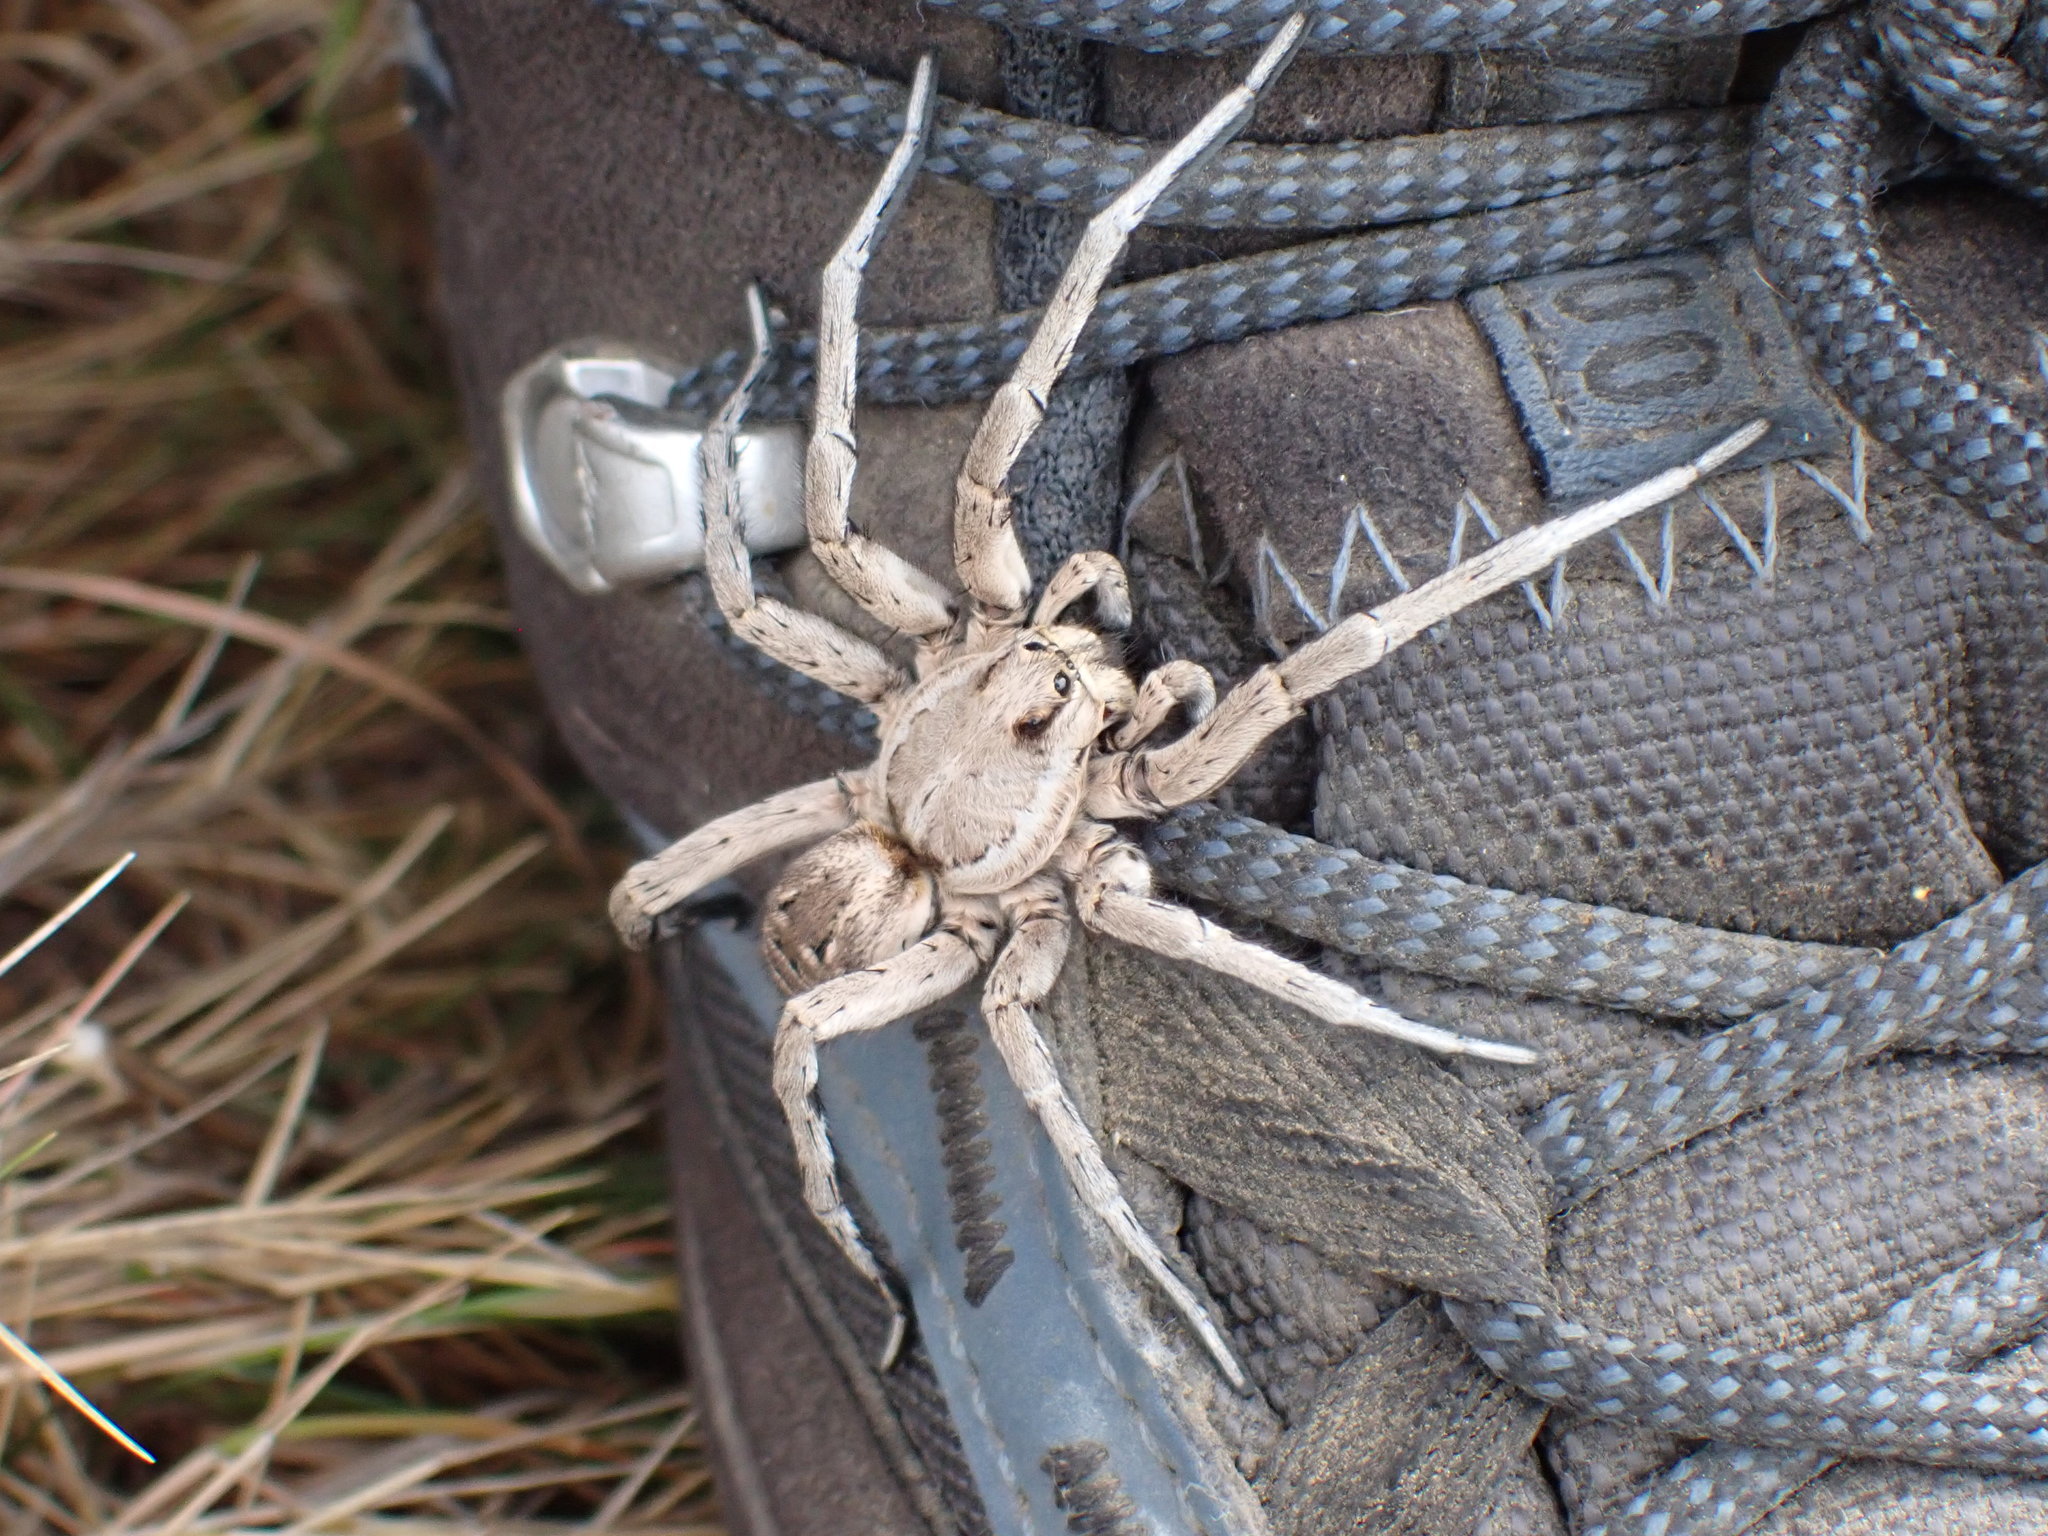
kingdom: Animalia
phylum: Arthropoda
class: Arachnida
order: Araneae
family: Lycosidae
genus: Lycosa
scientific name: Lycosa tarantula
